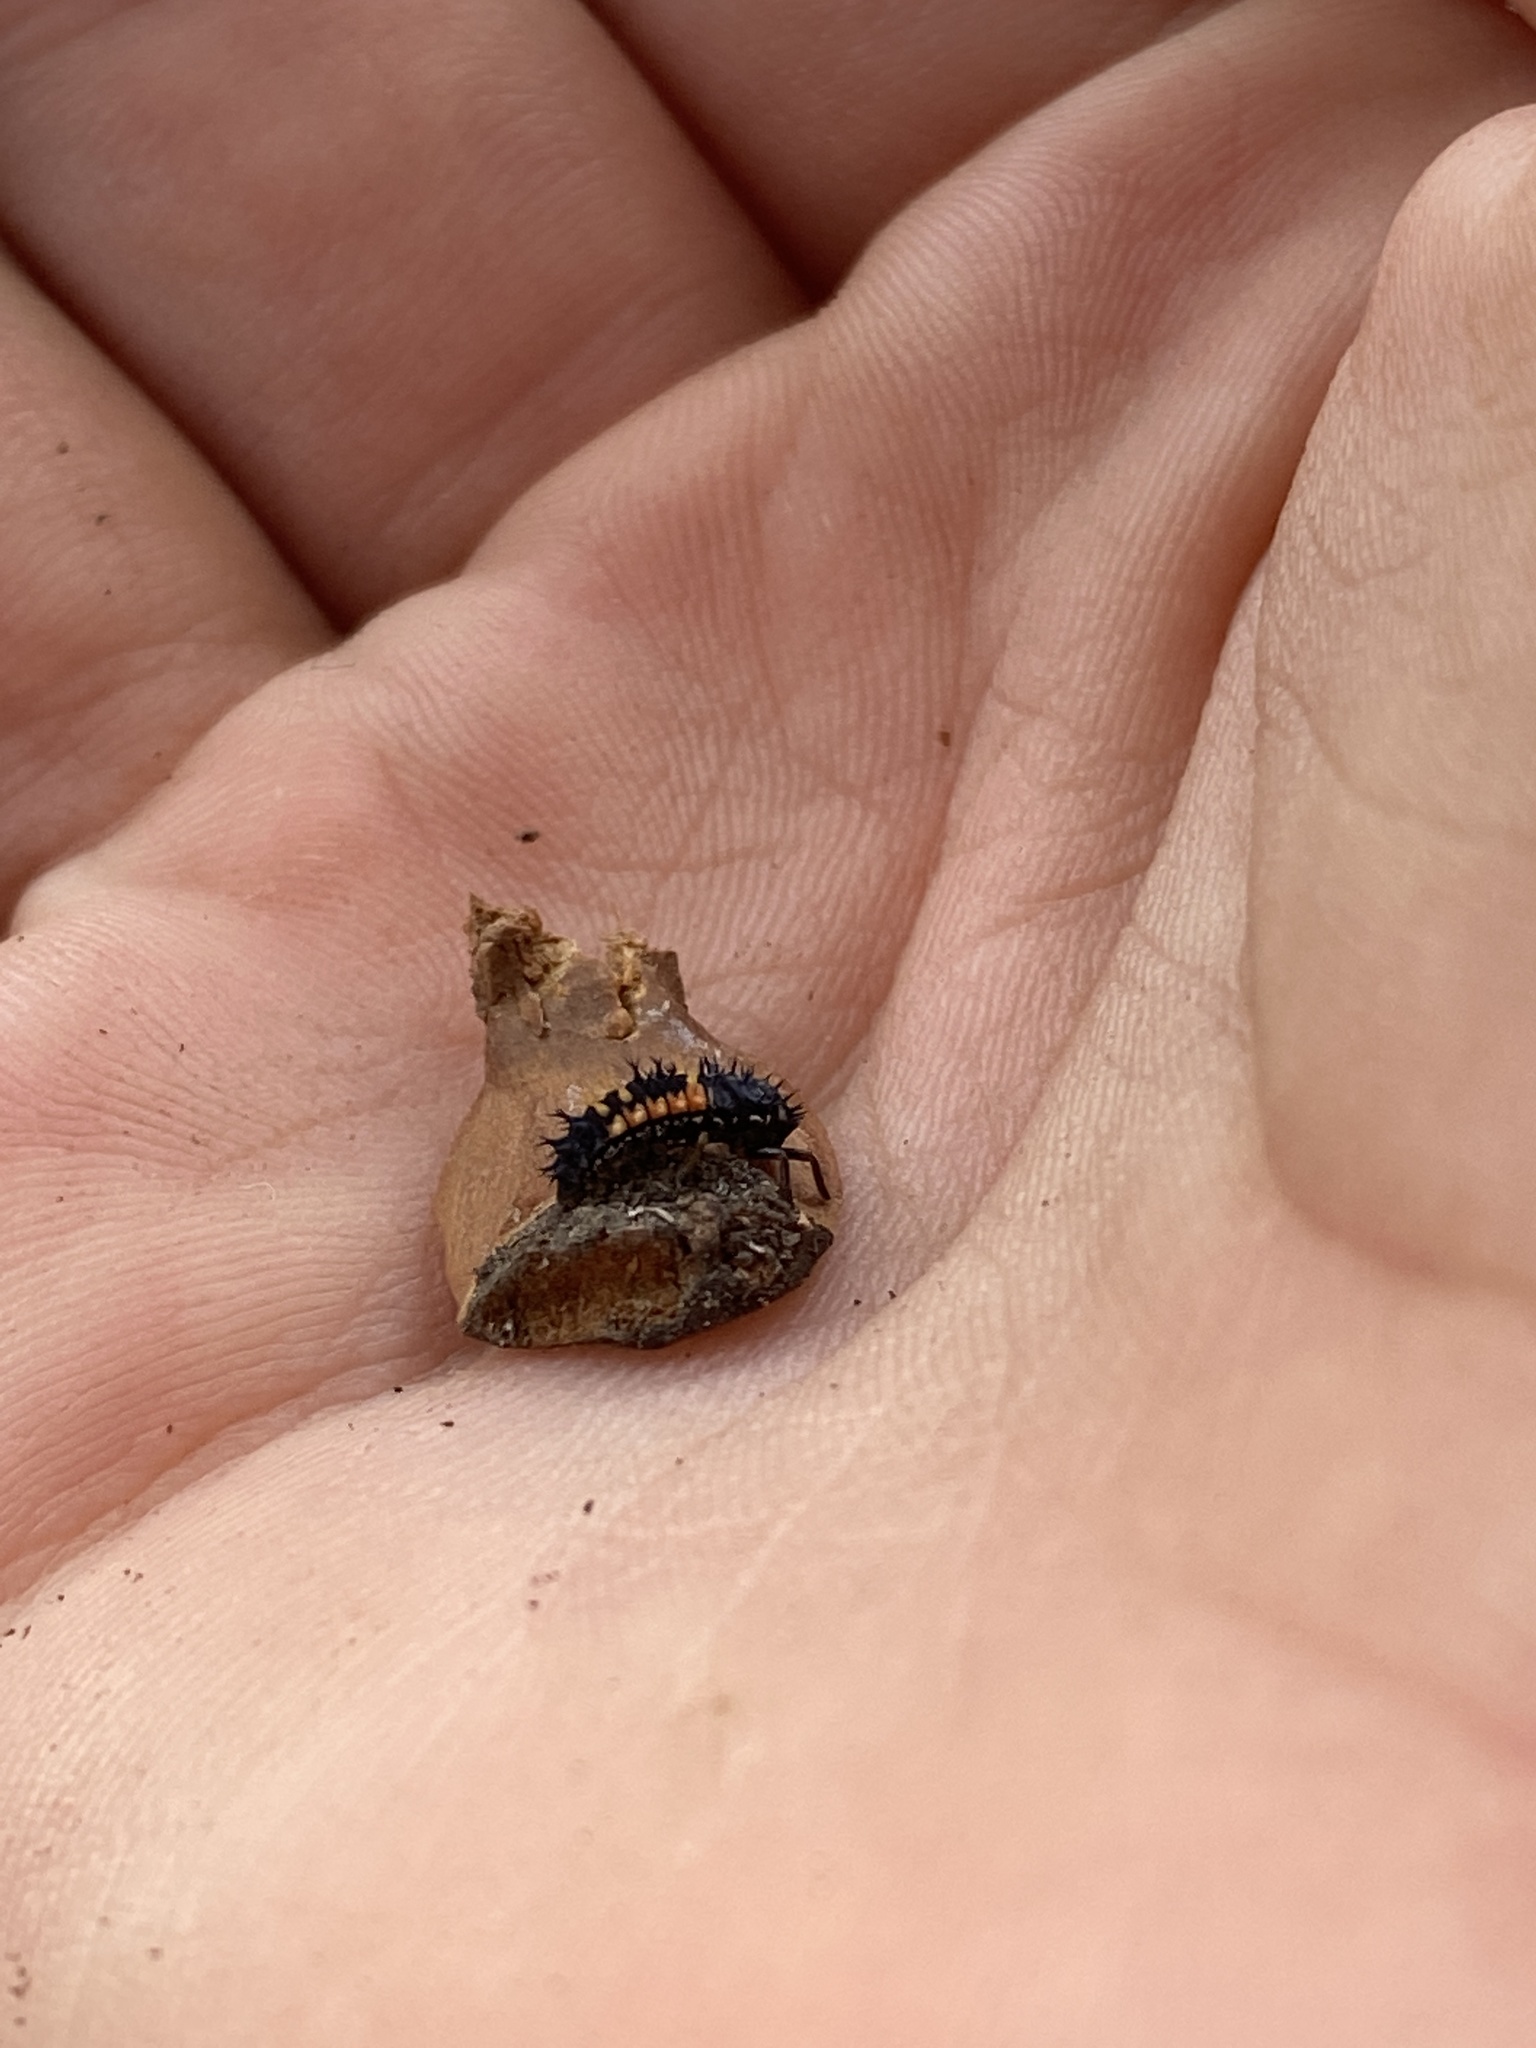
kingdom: Animalia
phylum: Arthropoda
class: Insecta
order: Coleoptera
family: Coccinellidae
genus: Harmonia
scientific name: Harmonia axyridis
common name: Harlequin ladybird
